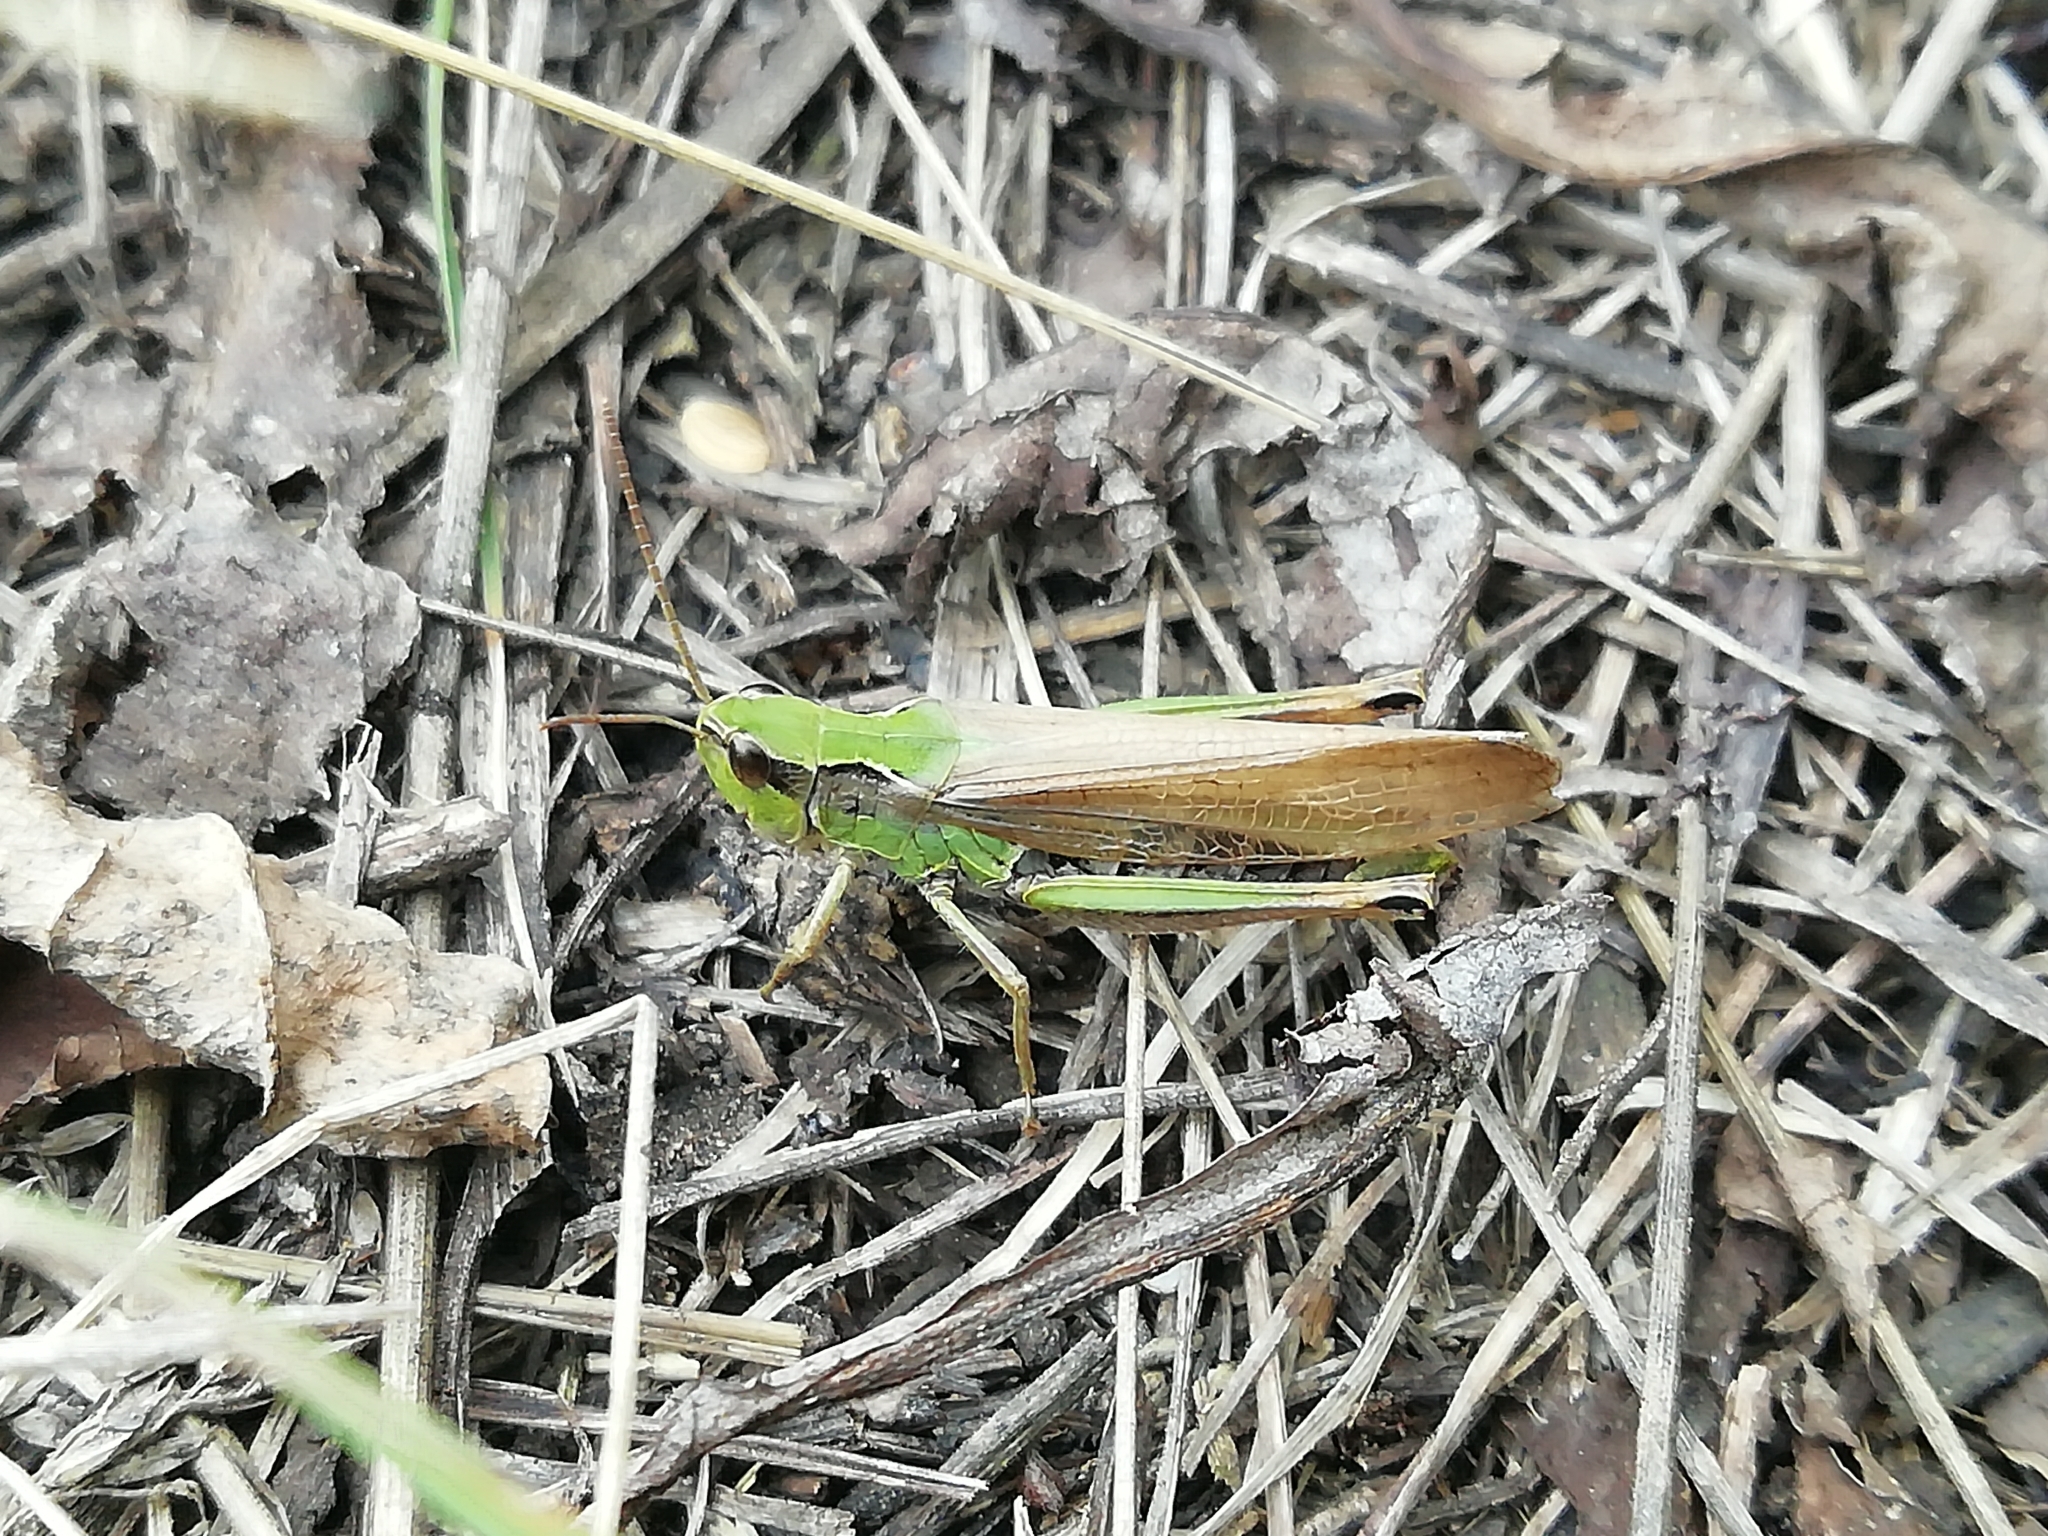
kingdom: Animalia
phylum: Arthropoda
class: Insecta
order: Orthoptera
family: Acrididae
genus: Chorthippus
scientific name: Chorthippus fallax
